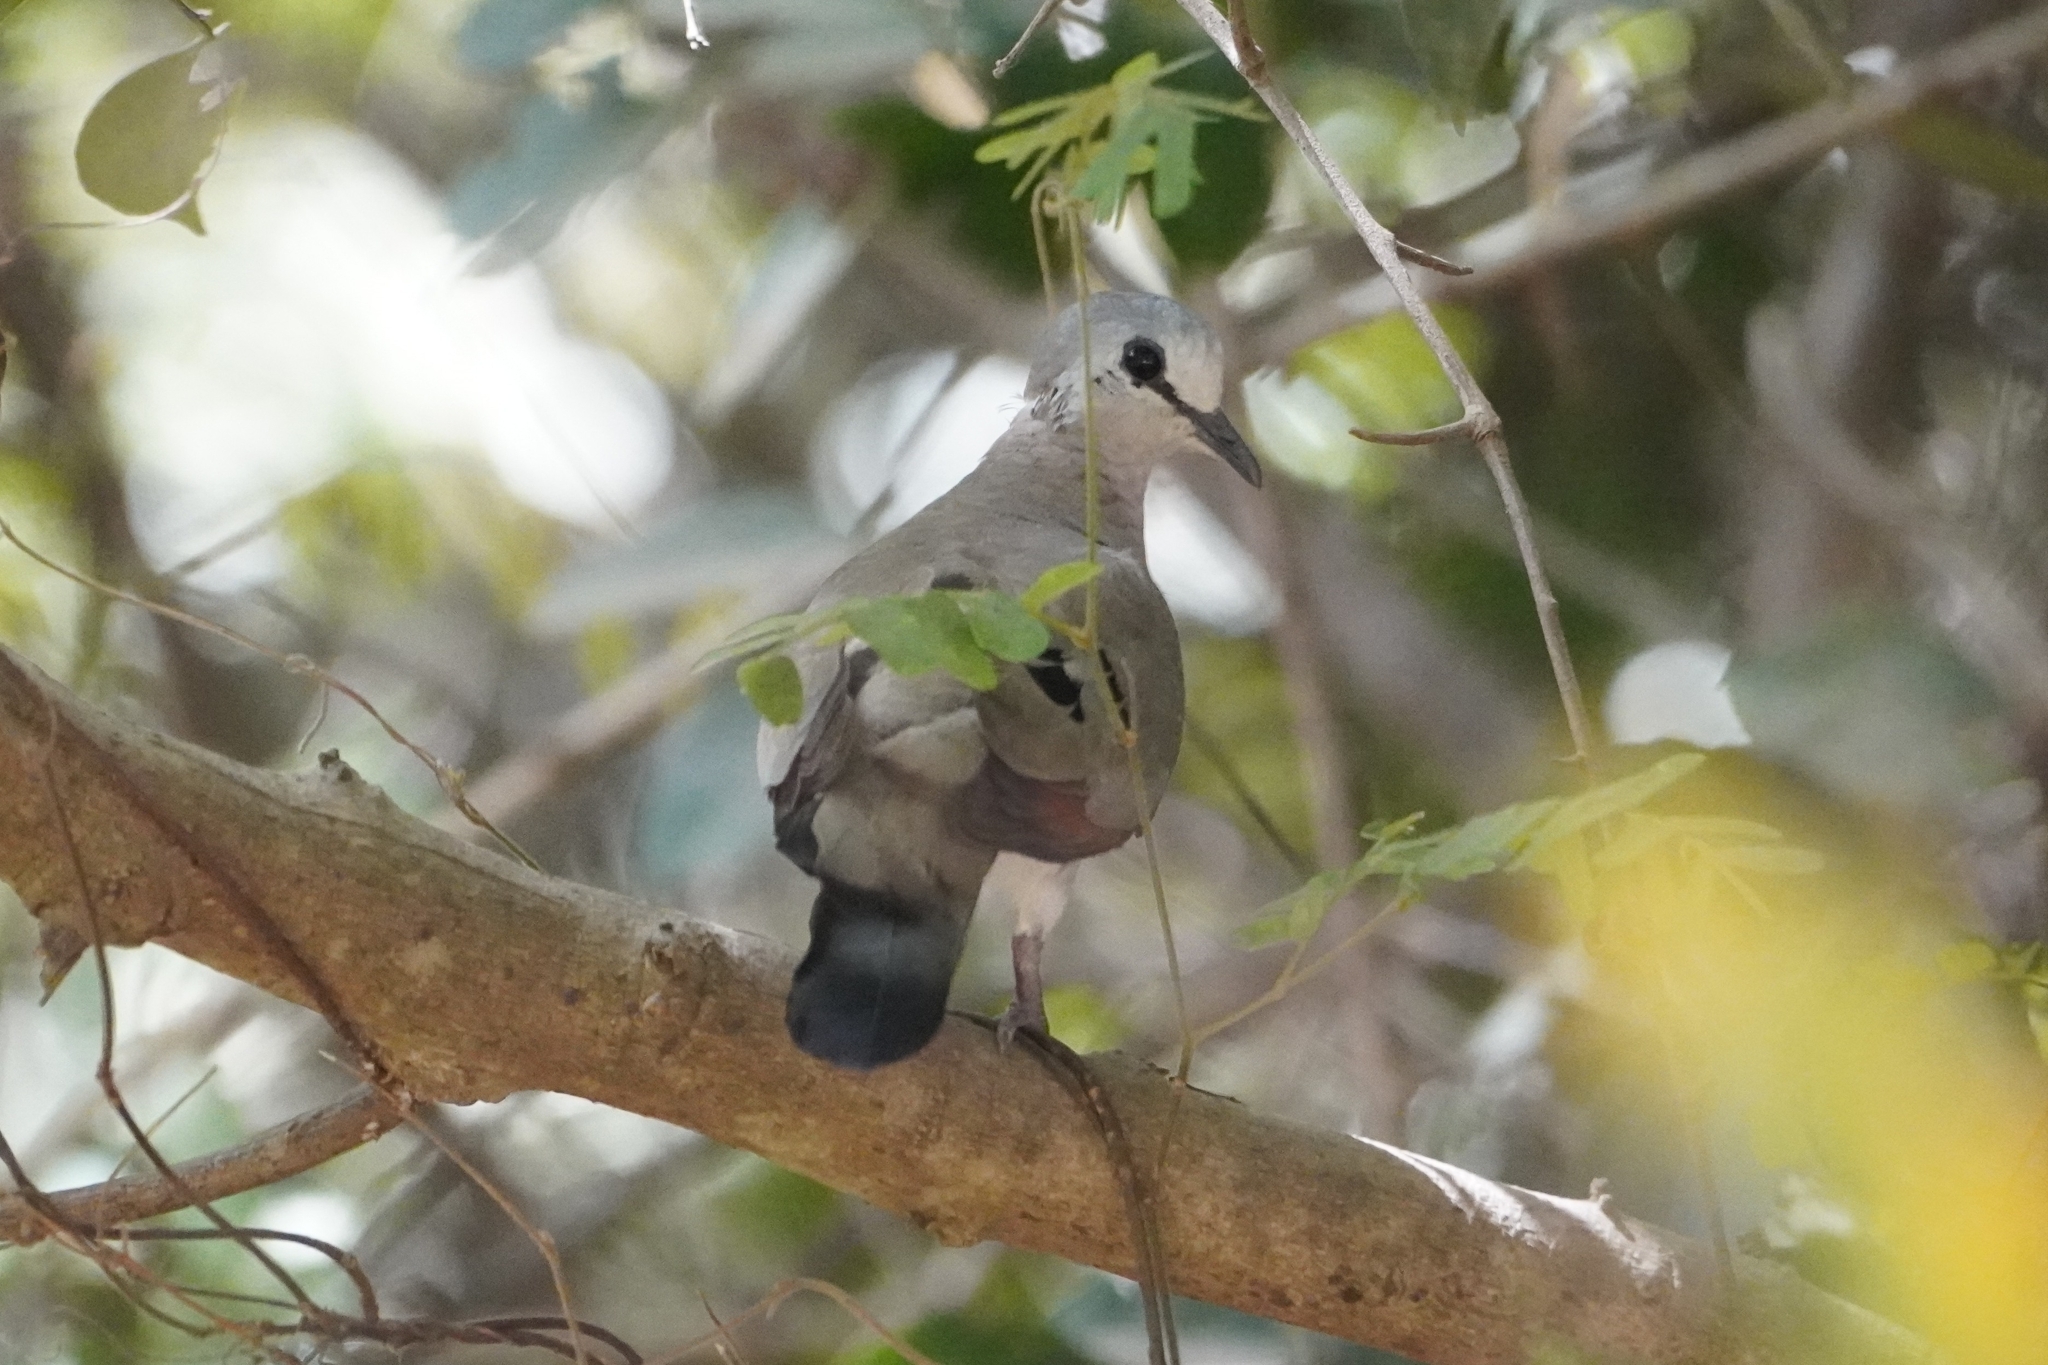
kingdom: Animalia
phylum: Chordata
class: Aves
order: Columbiformes
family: Columbidae
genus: Turtur
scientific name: Turtur abyssinicus
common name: Black-billed wood dove
